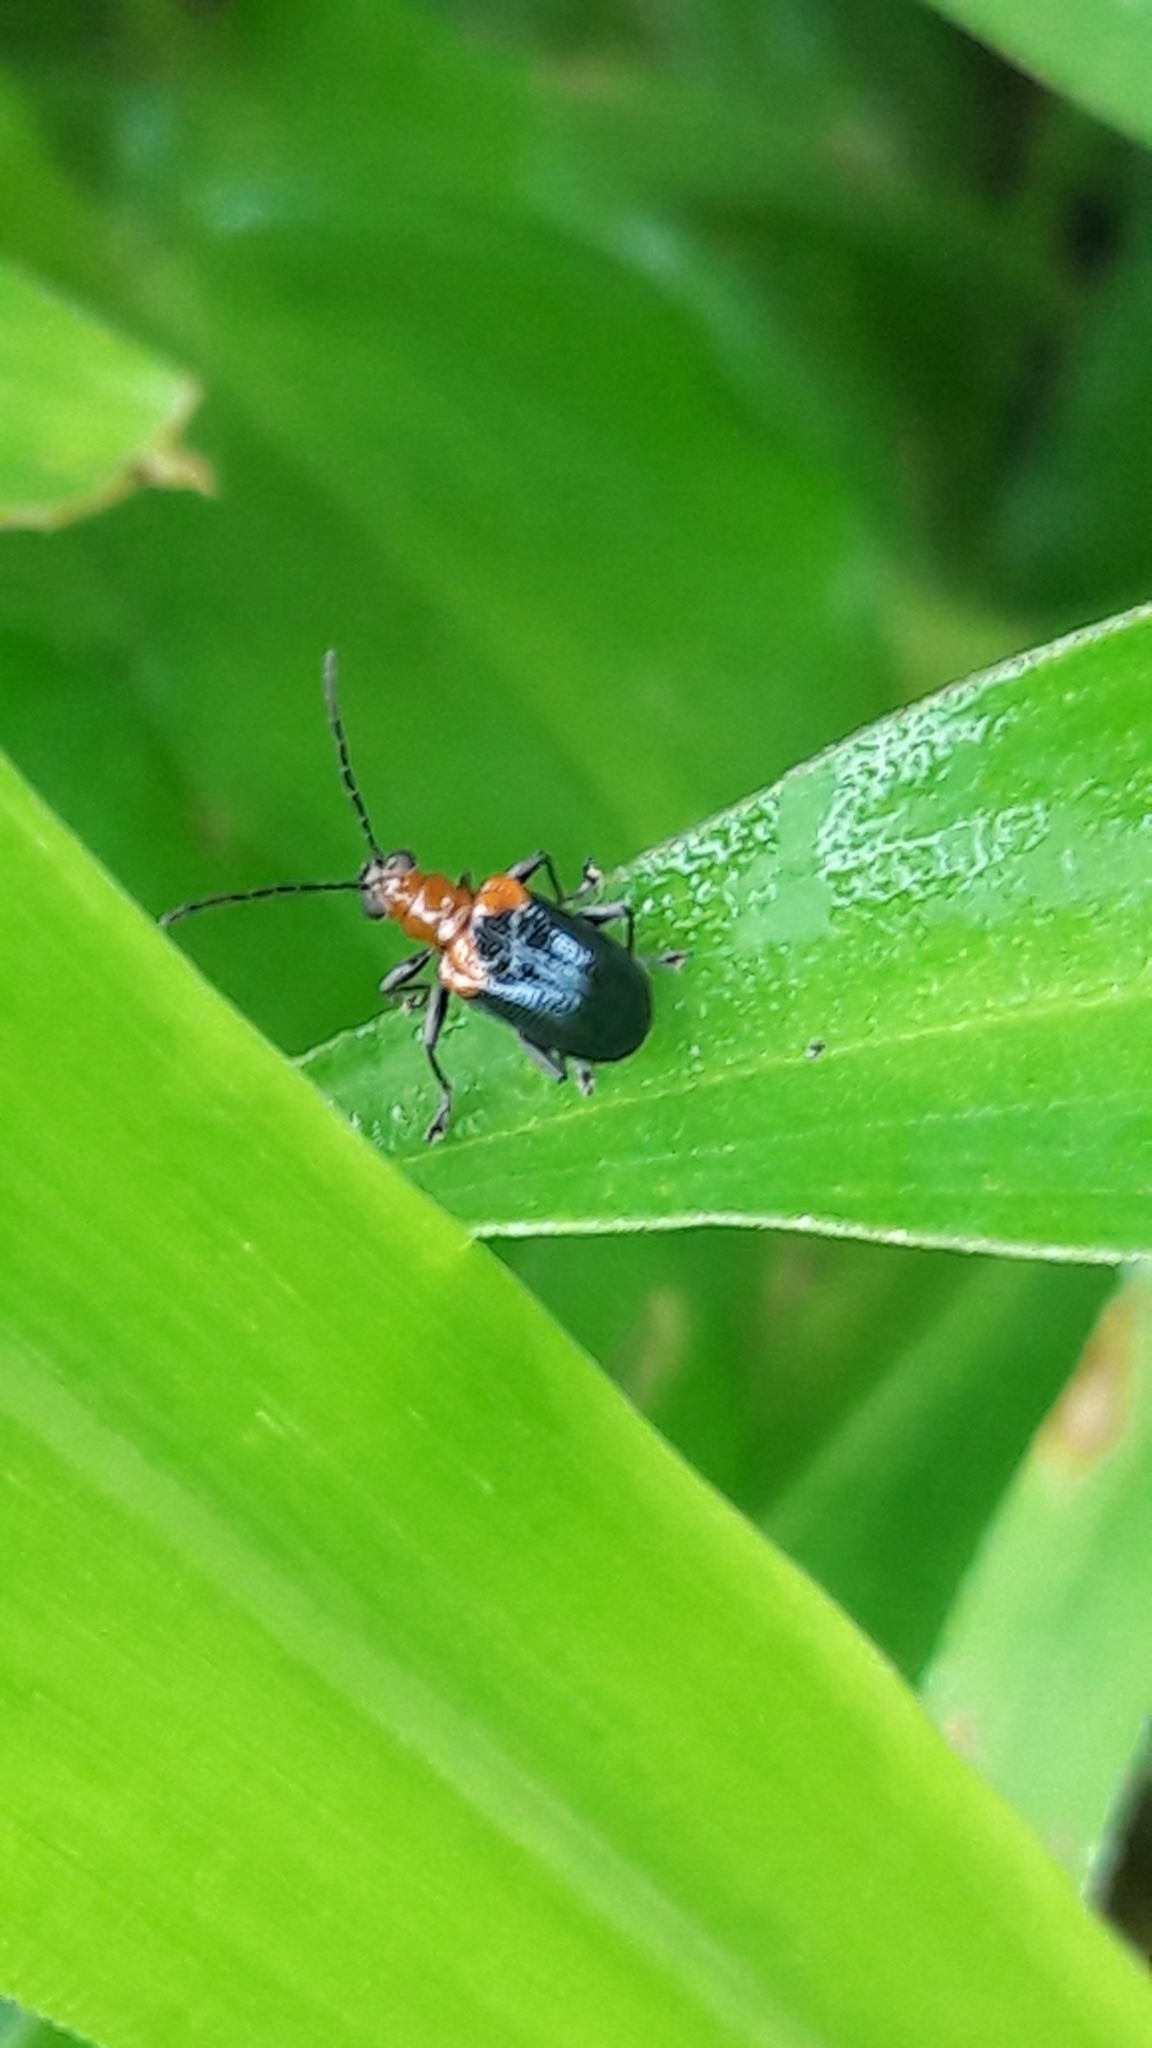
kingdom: Animalia
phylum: Arthropoda
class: Insecta
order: Coleoptera
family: Chrysomelidae
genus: Neolema
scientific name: Neolema
